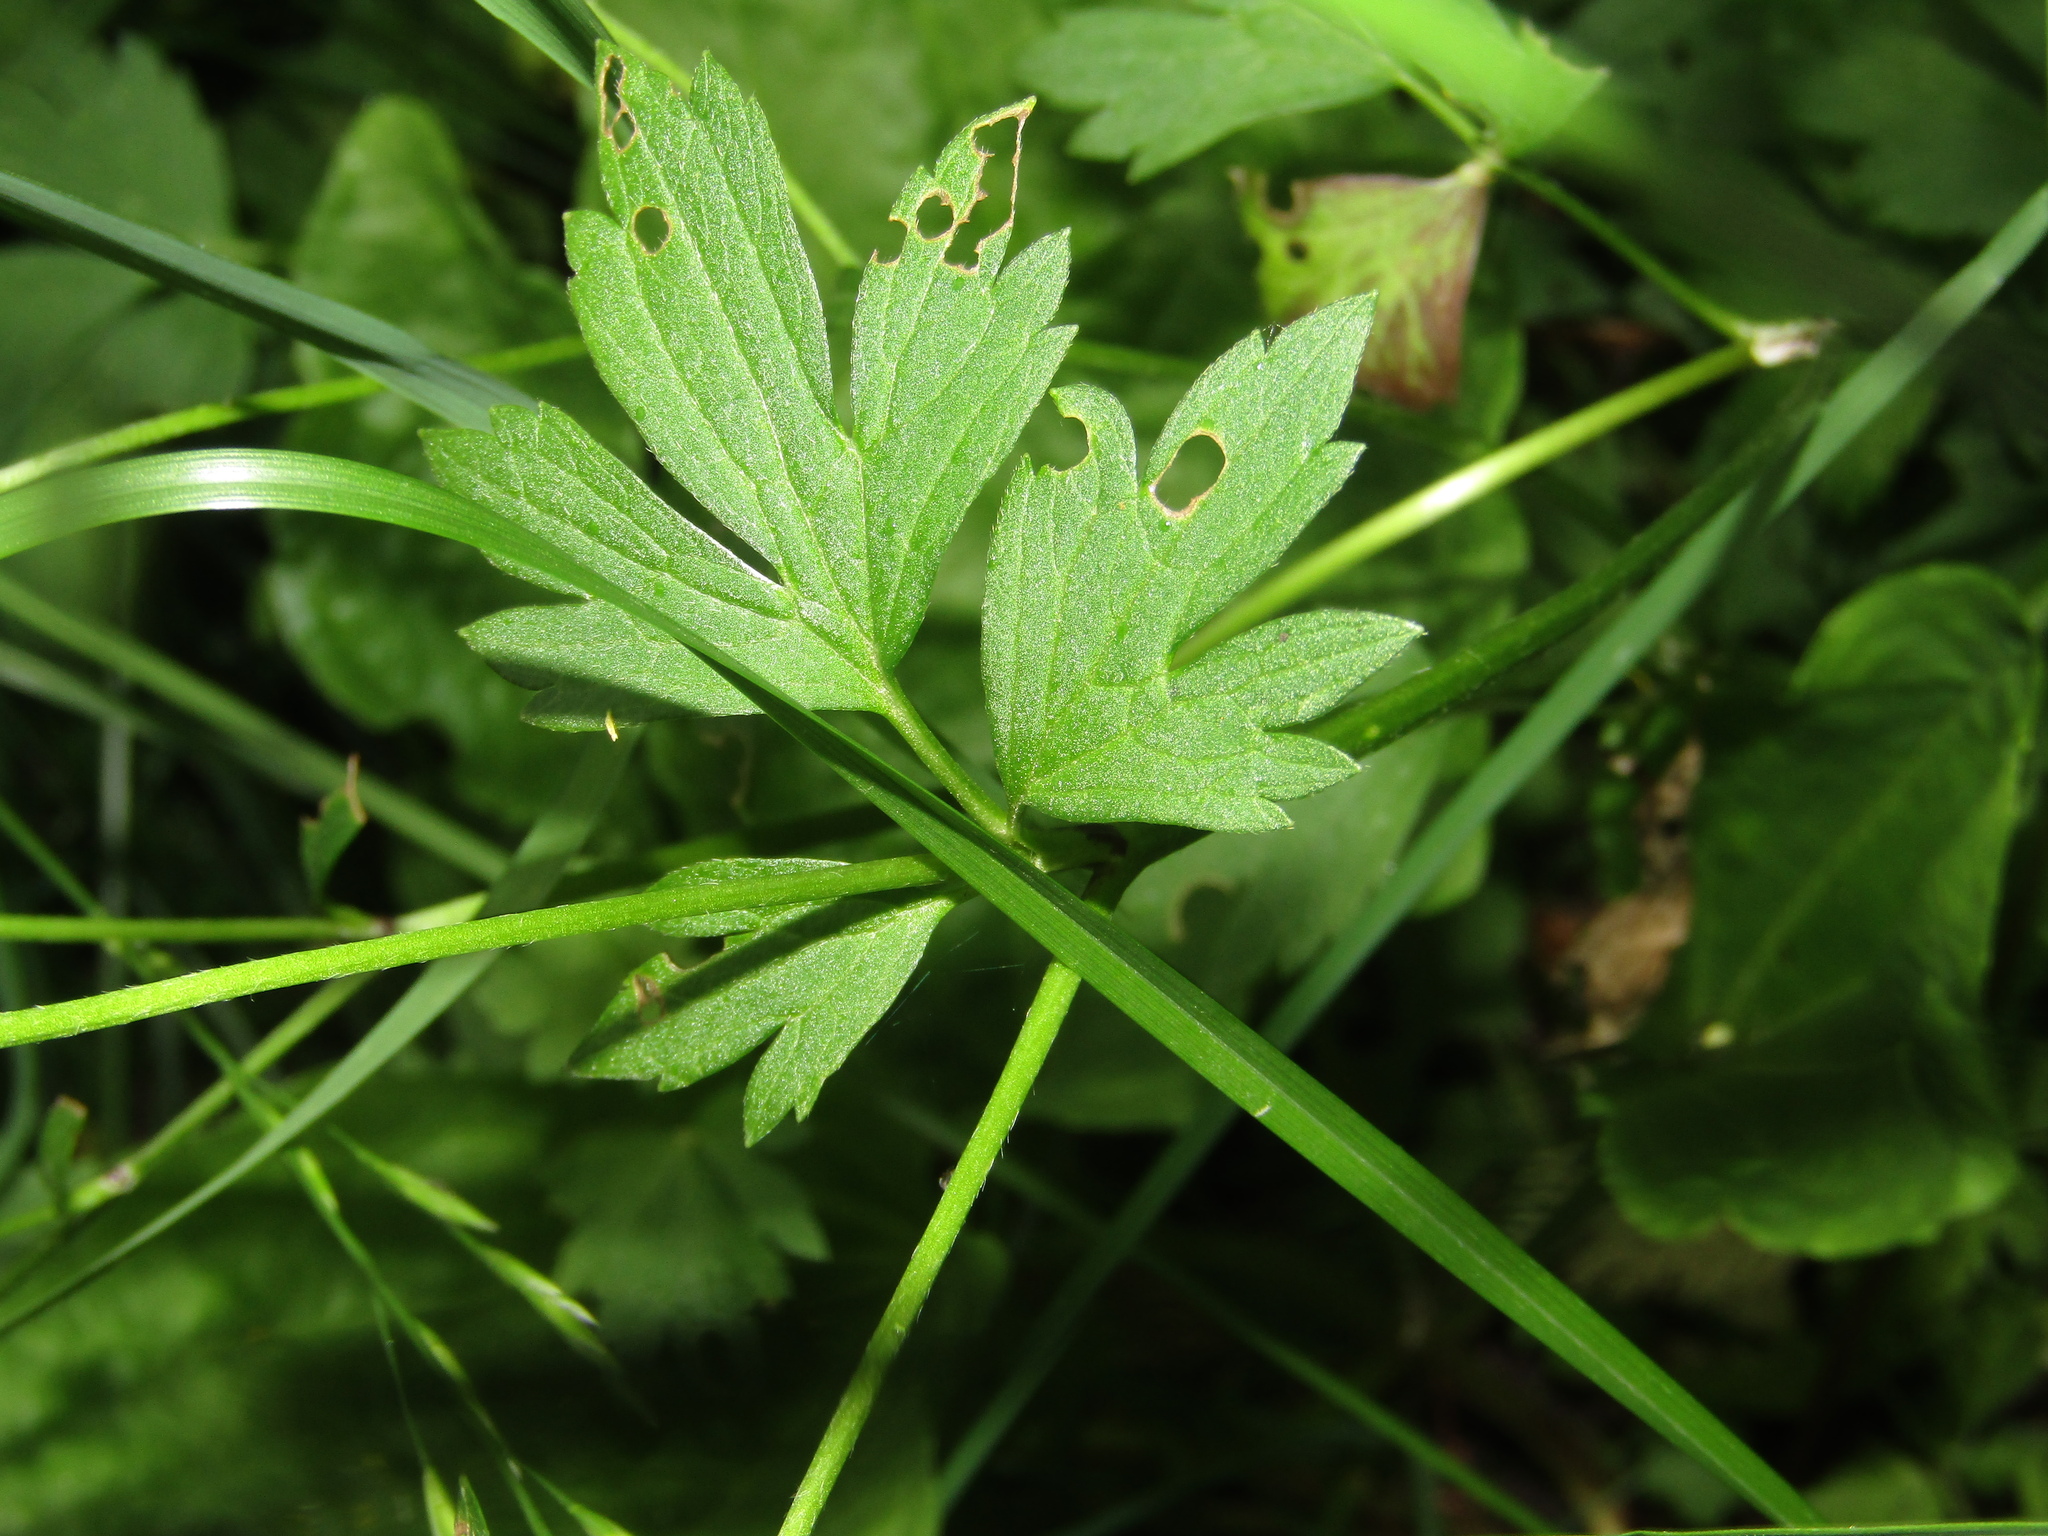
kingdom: Plantae
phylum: Tracheophyta
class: Magnoliopsida
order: Ranunculales
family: Ranunculaceae
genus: Ranunculus
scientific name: Ranunculus repens
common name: Creeping buttercup
